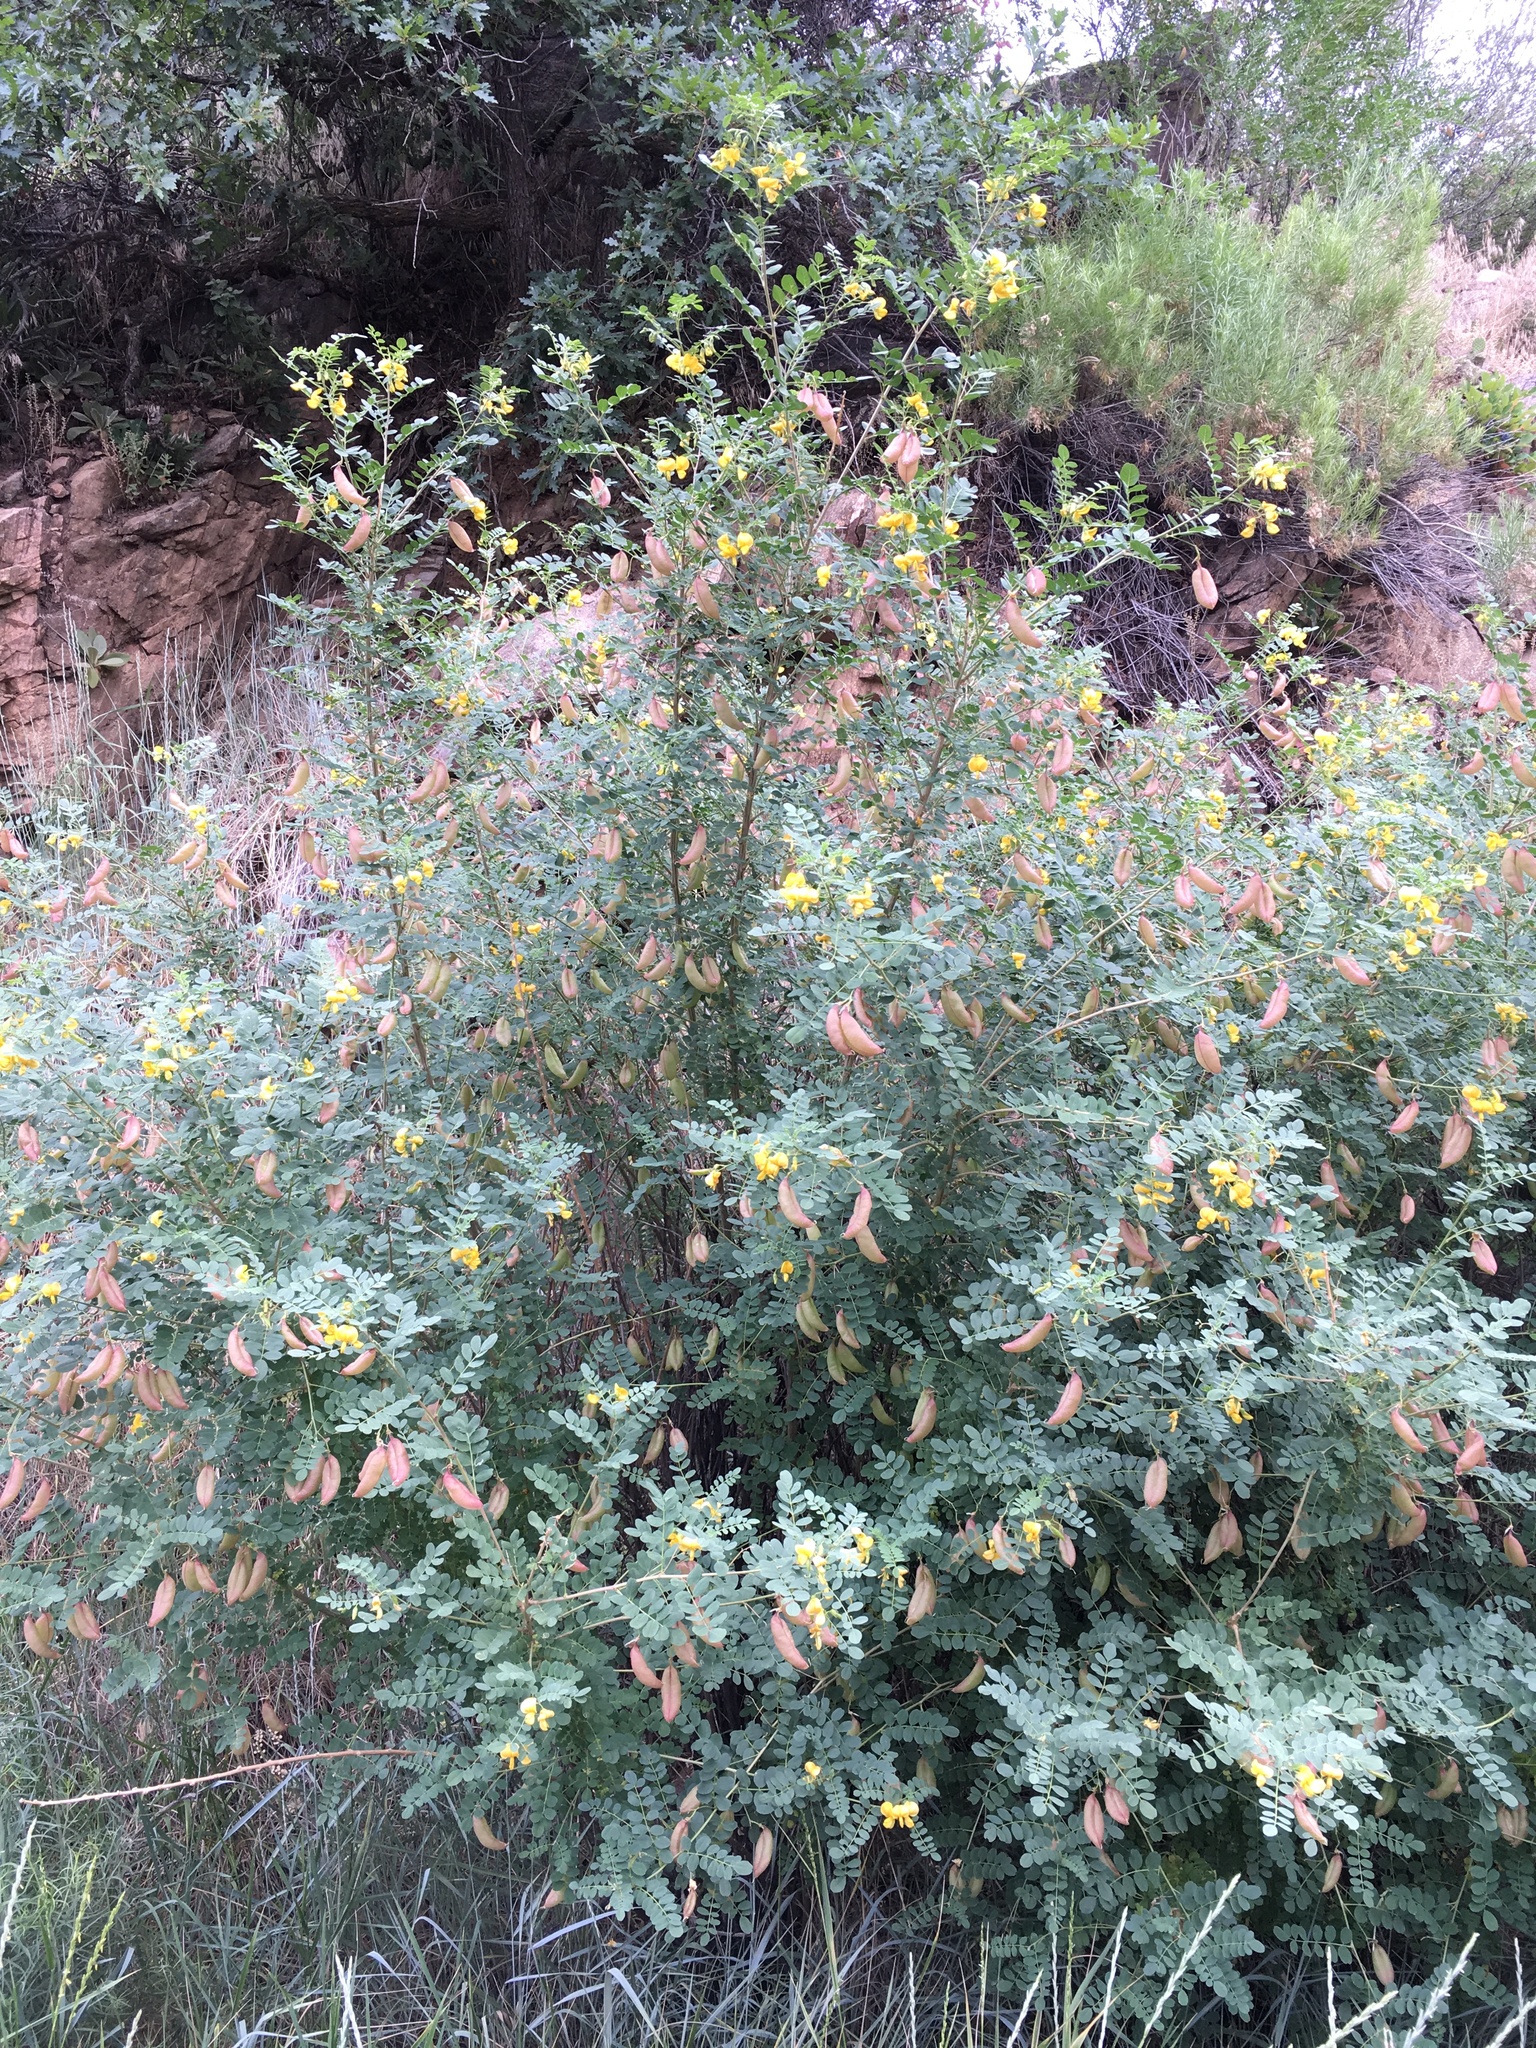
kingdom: Plantae
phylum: Tracheophyta
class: Magnoliopsida
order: Fabales
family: Fabaceae
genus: Colutea
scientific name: Colutea arborescens
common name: Bladder-senna
